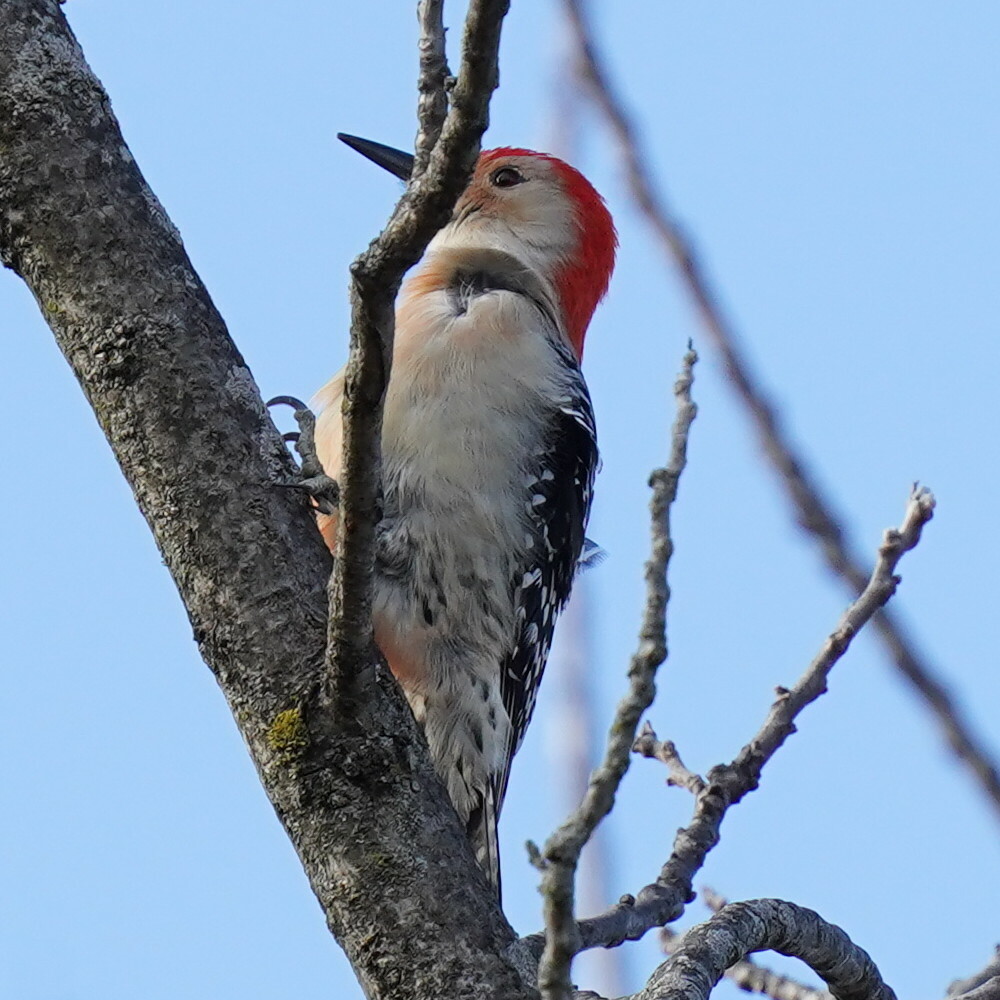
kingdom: Animalia
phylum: Chordata
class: Aves
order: Piciformes
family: Picidae
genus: Melanerpes
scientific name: Melanerpes carolinus
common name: Red-bellied woodpecker
